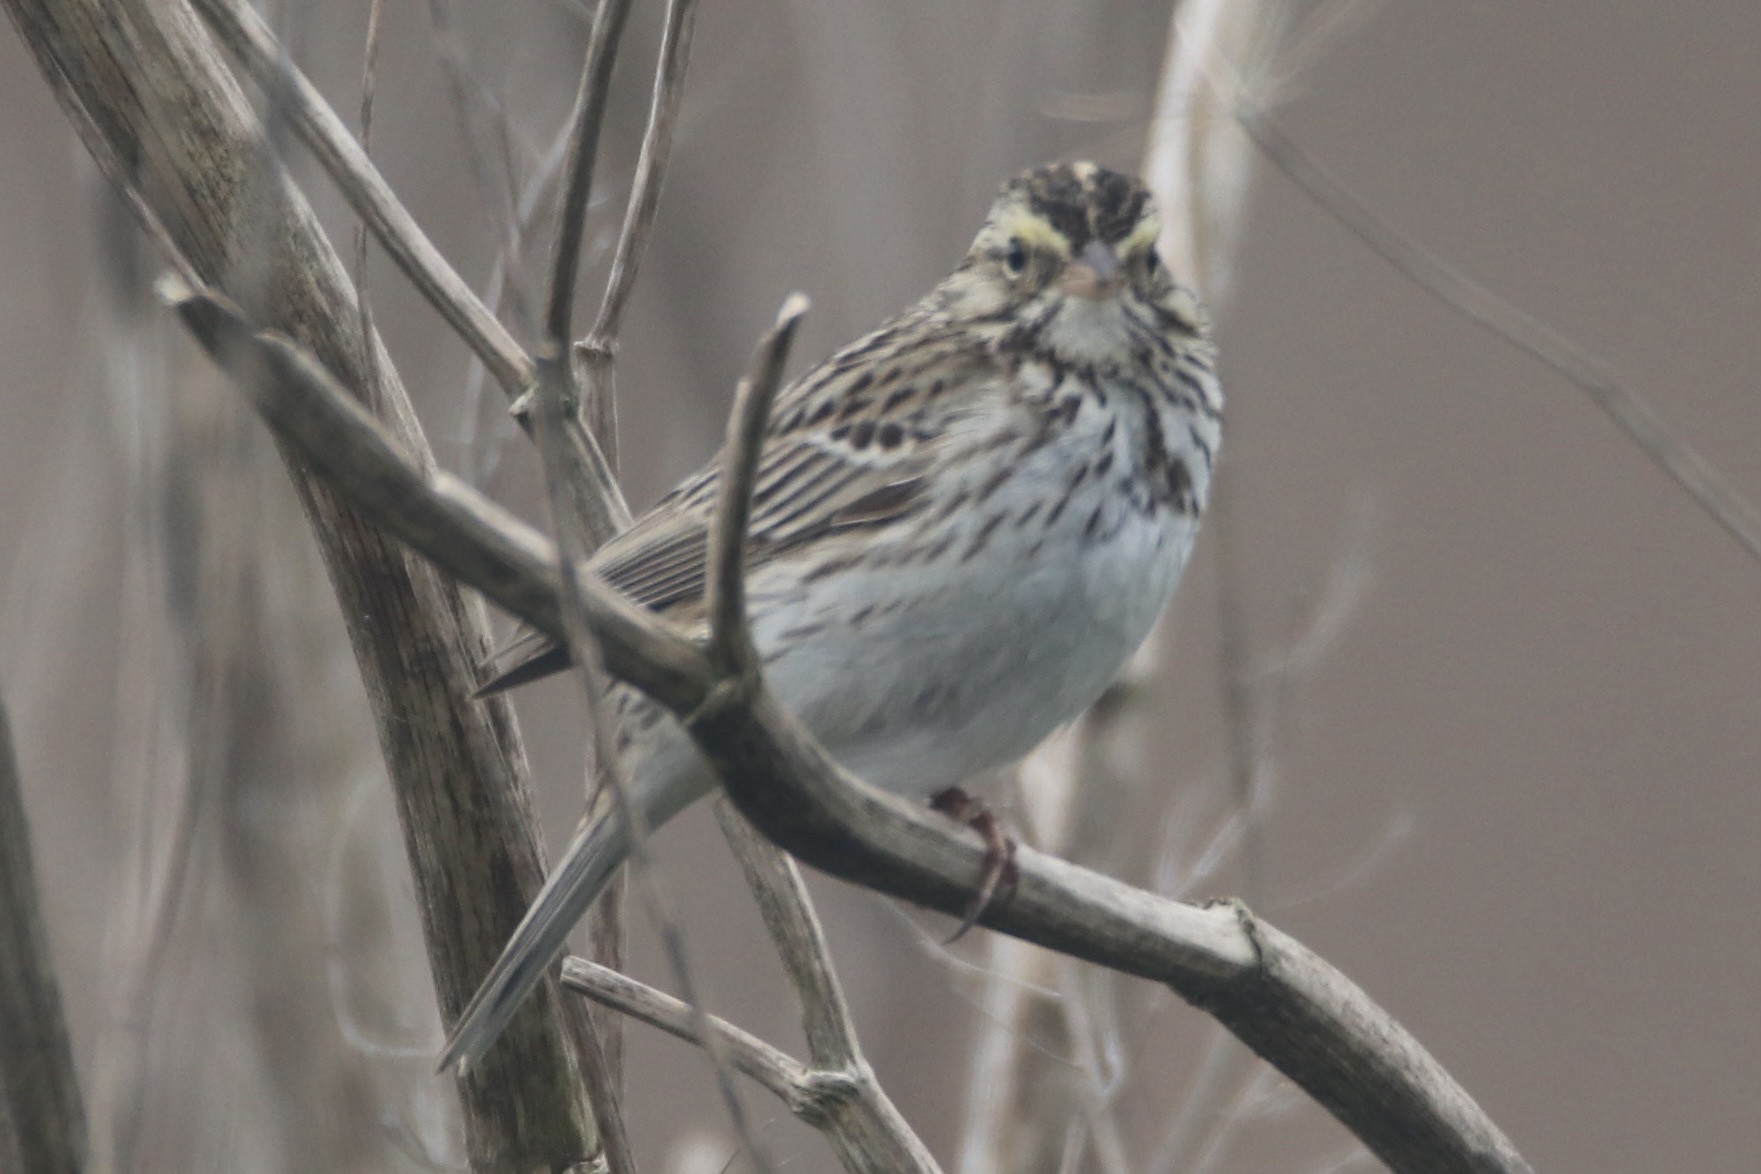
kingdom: Animalia
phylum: Chordata
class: Aves
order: Passeriformes
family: Passerellidae
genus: Passerculus
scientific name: Passerculus sandwichensis
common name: Savannah sparrow
